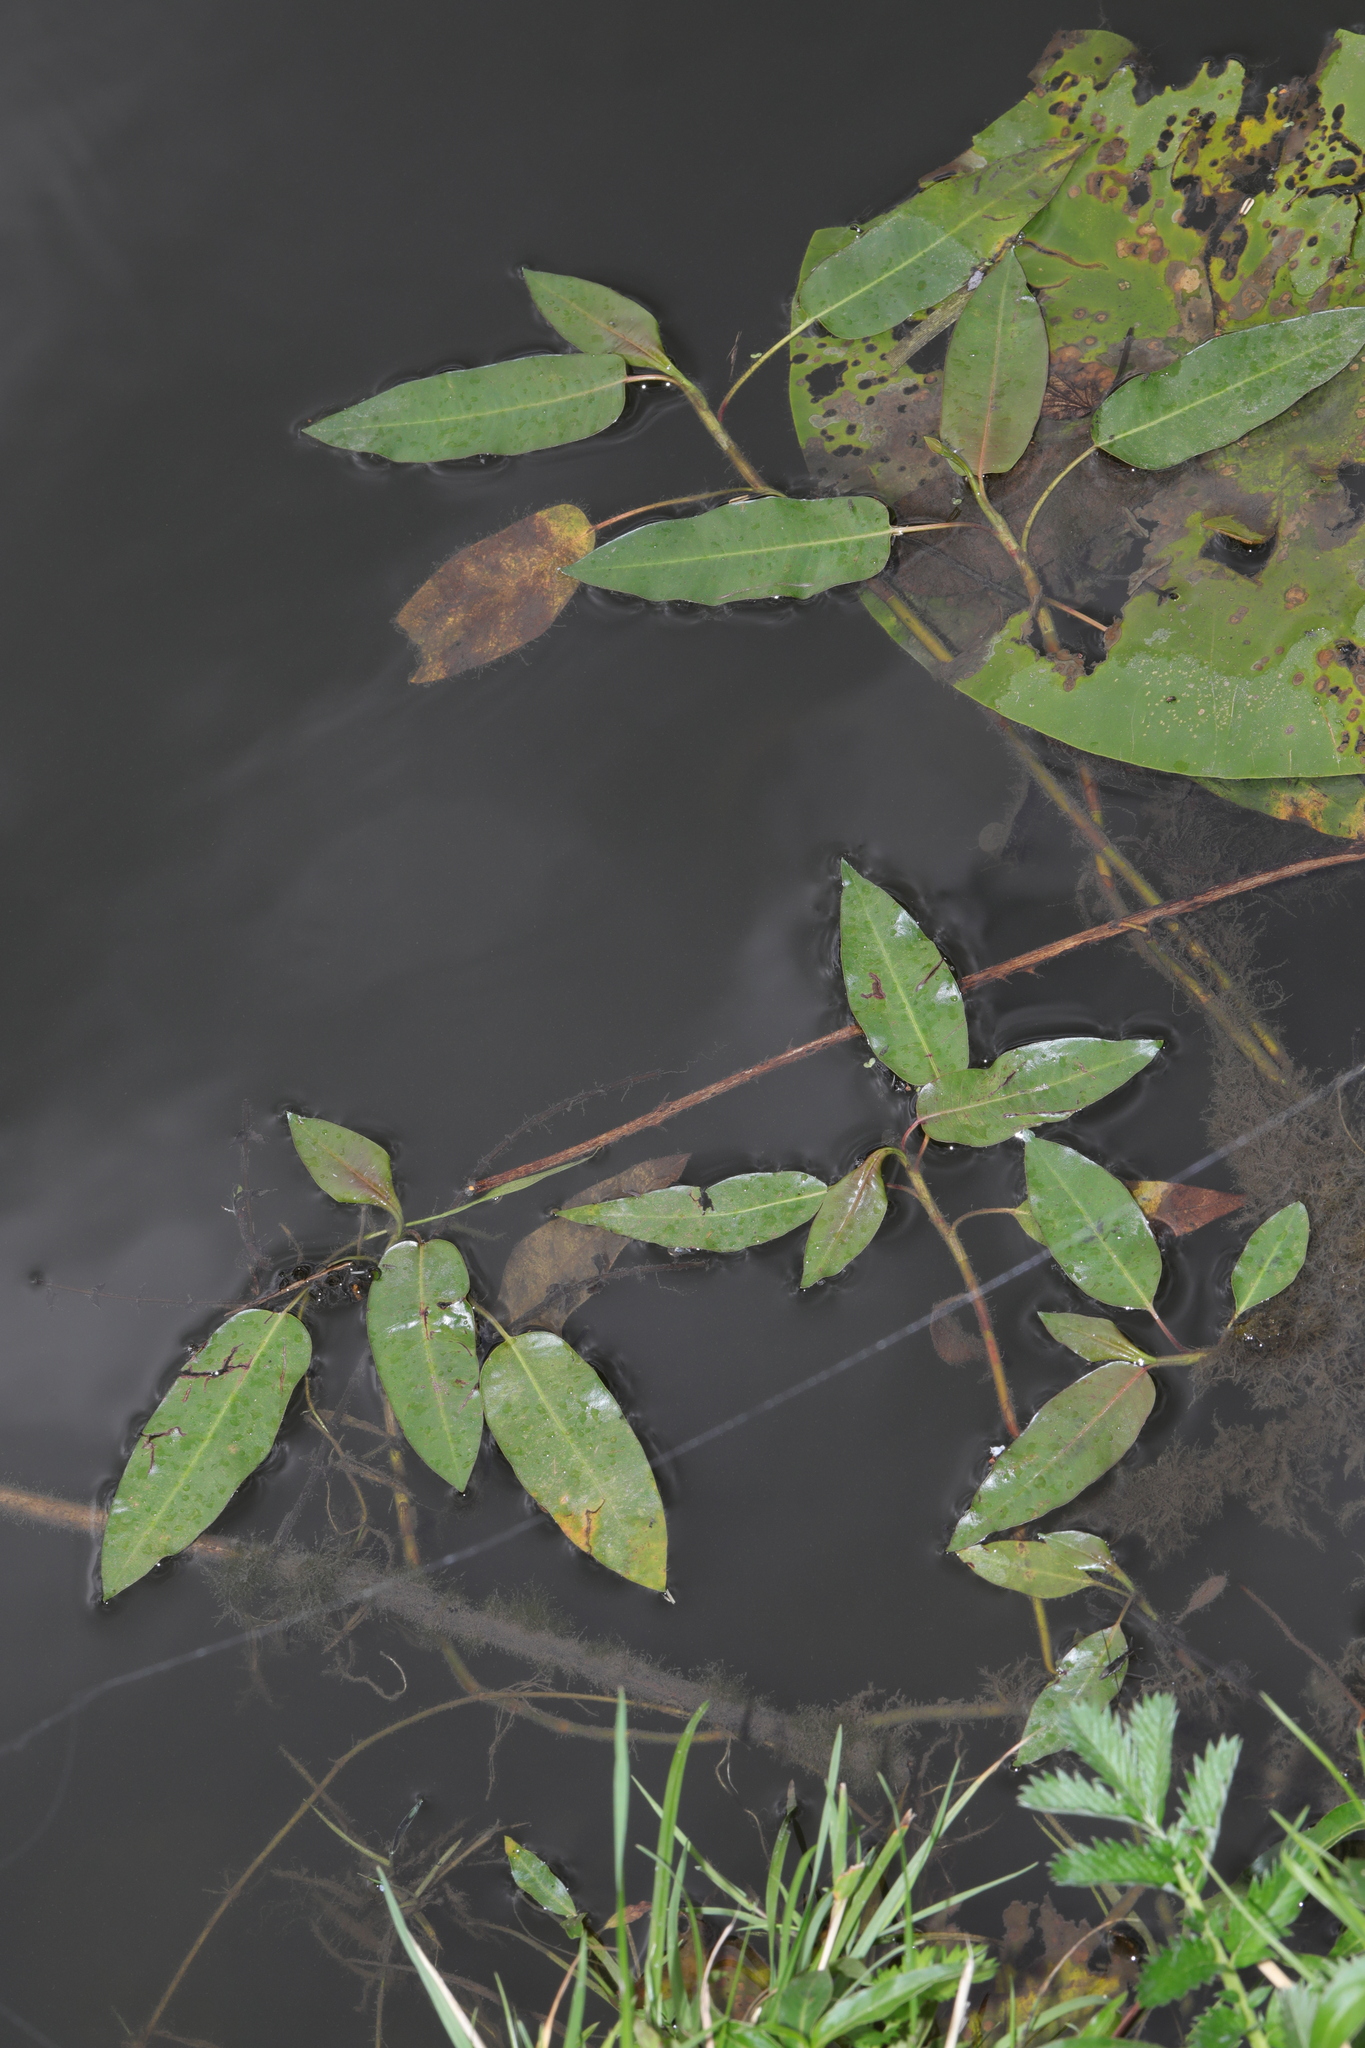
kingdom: Plantae
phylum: Tracheophyta
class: Magnoliopsida
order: Caryophyllales
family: Polygonaceae
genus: Persicaria
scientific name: Persicaria amphibia
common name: Amphibious bistort
